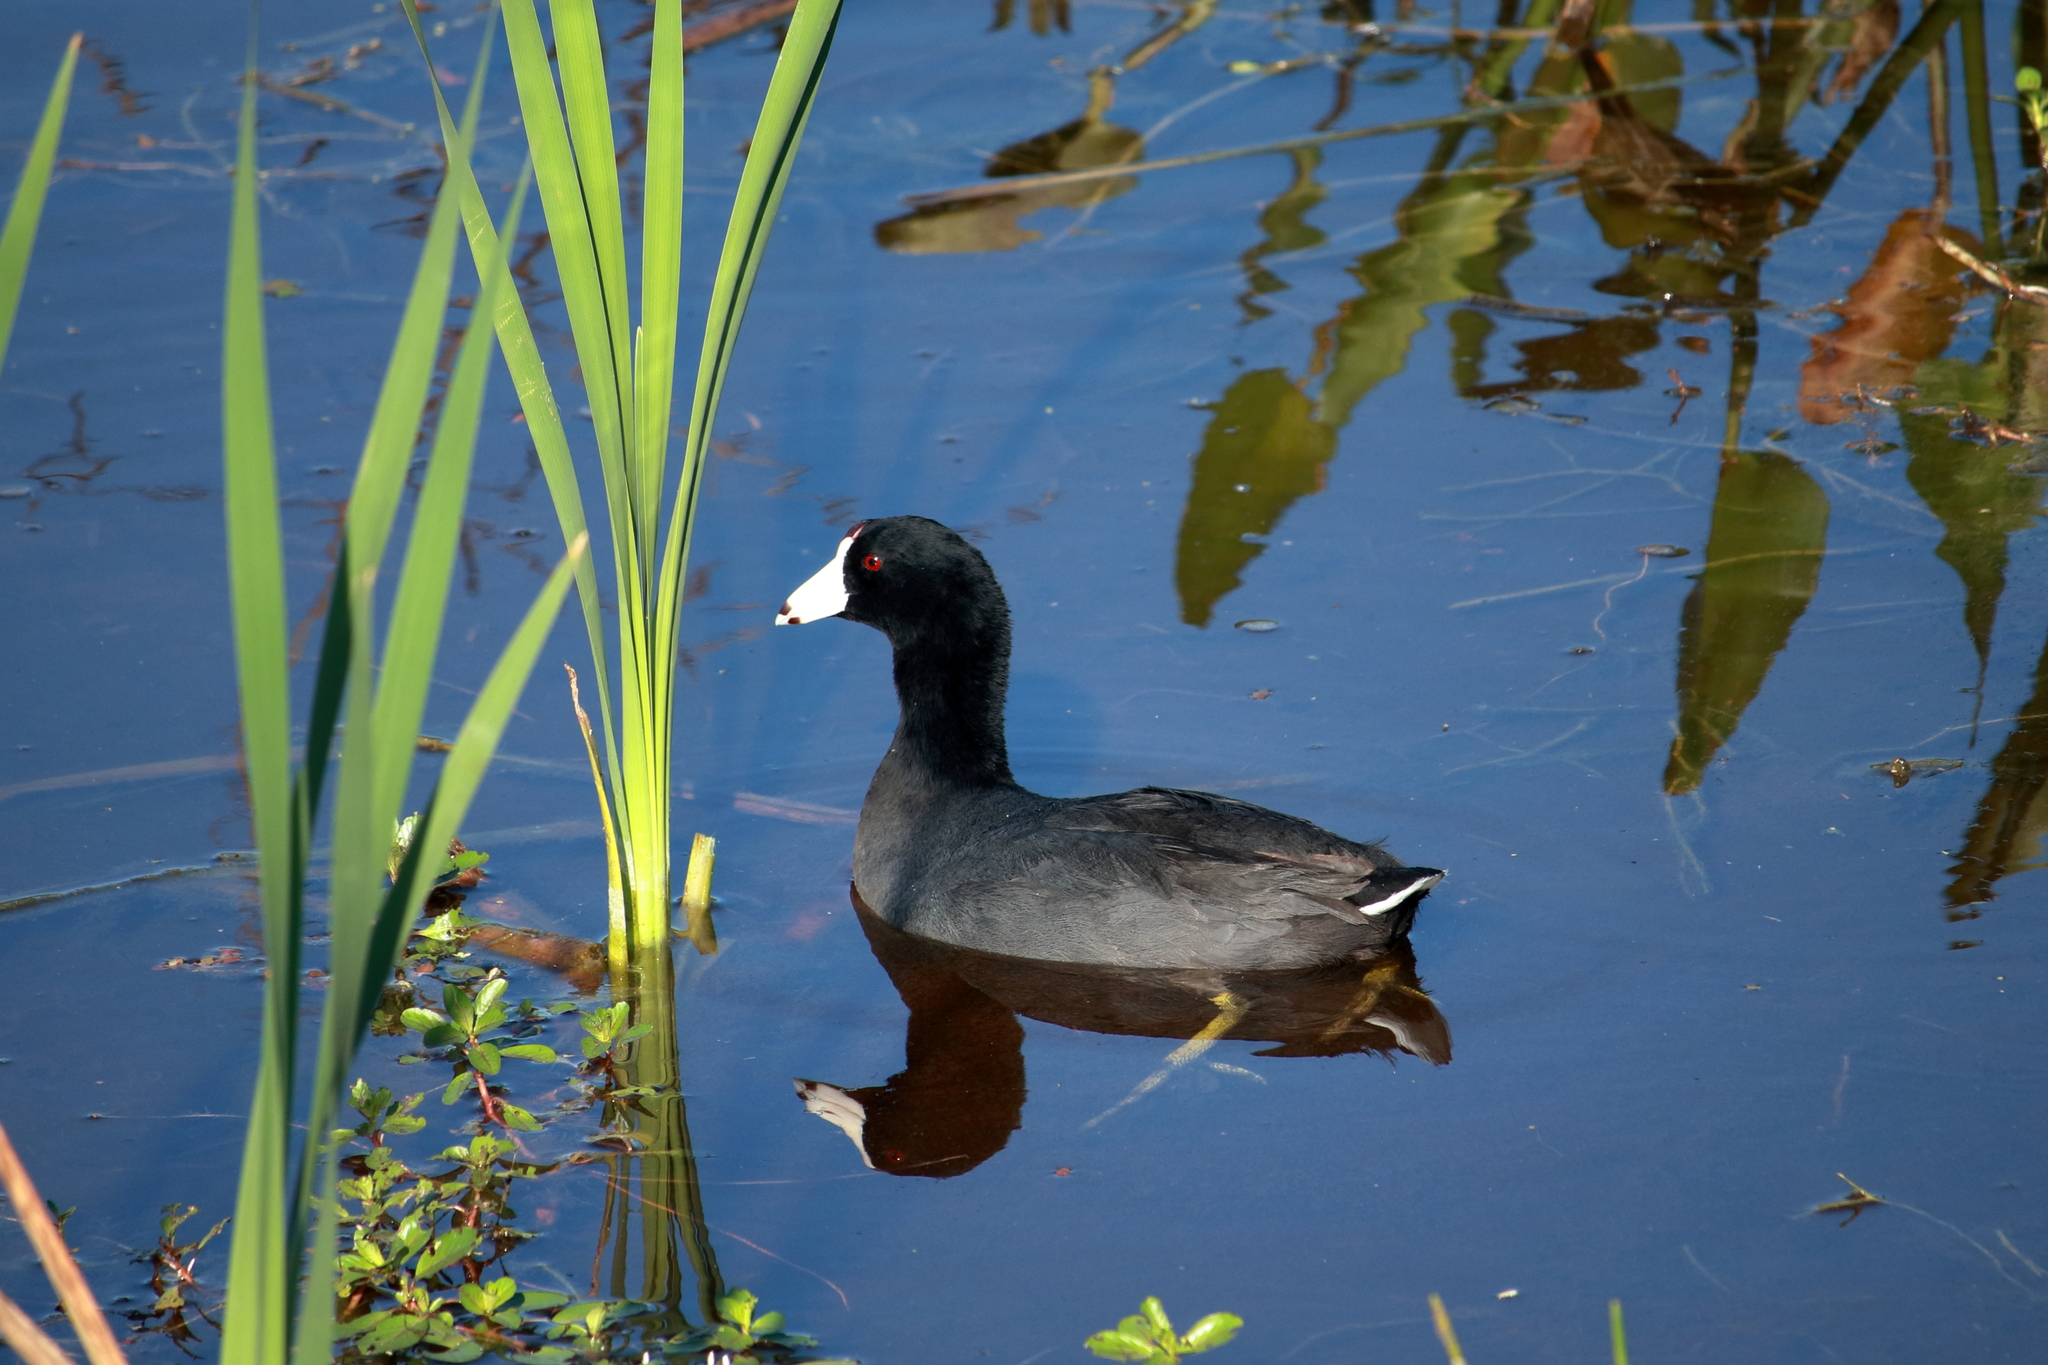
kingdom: Animalia
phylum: Chordata
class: Aves
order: Gruiformes
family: Rallidae
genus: Fulica
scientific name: Fulica americana
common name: American coot
